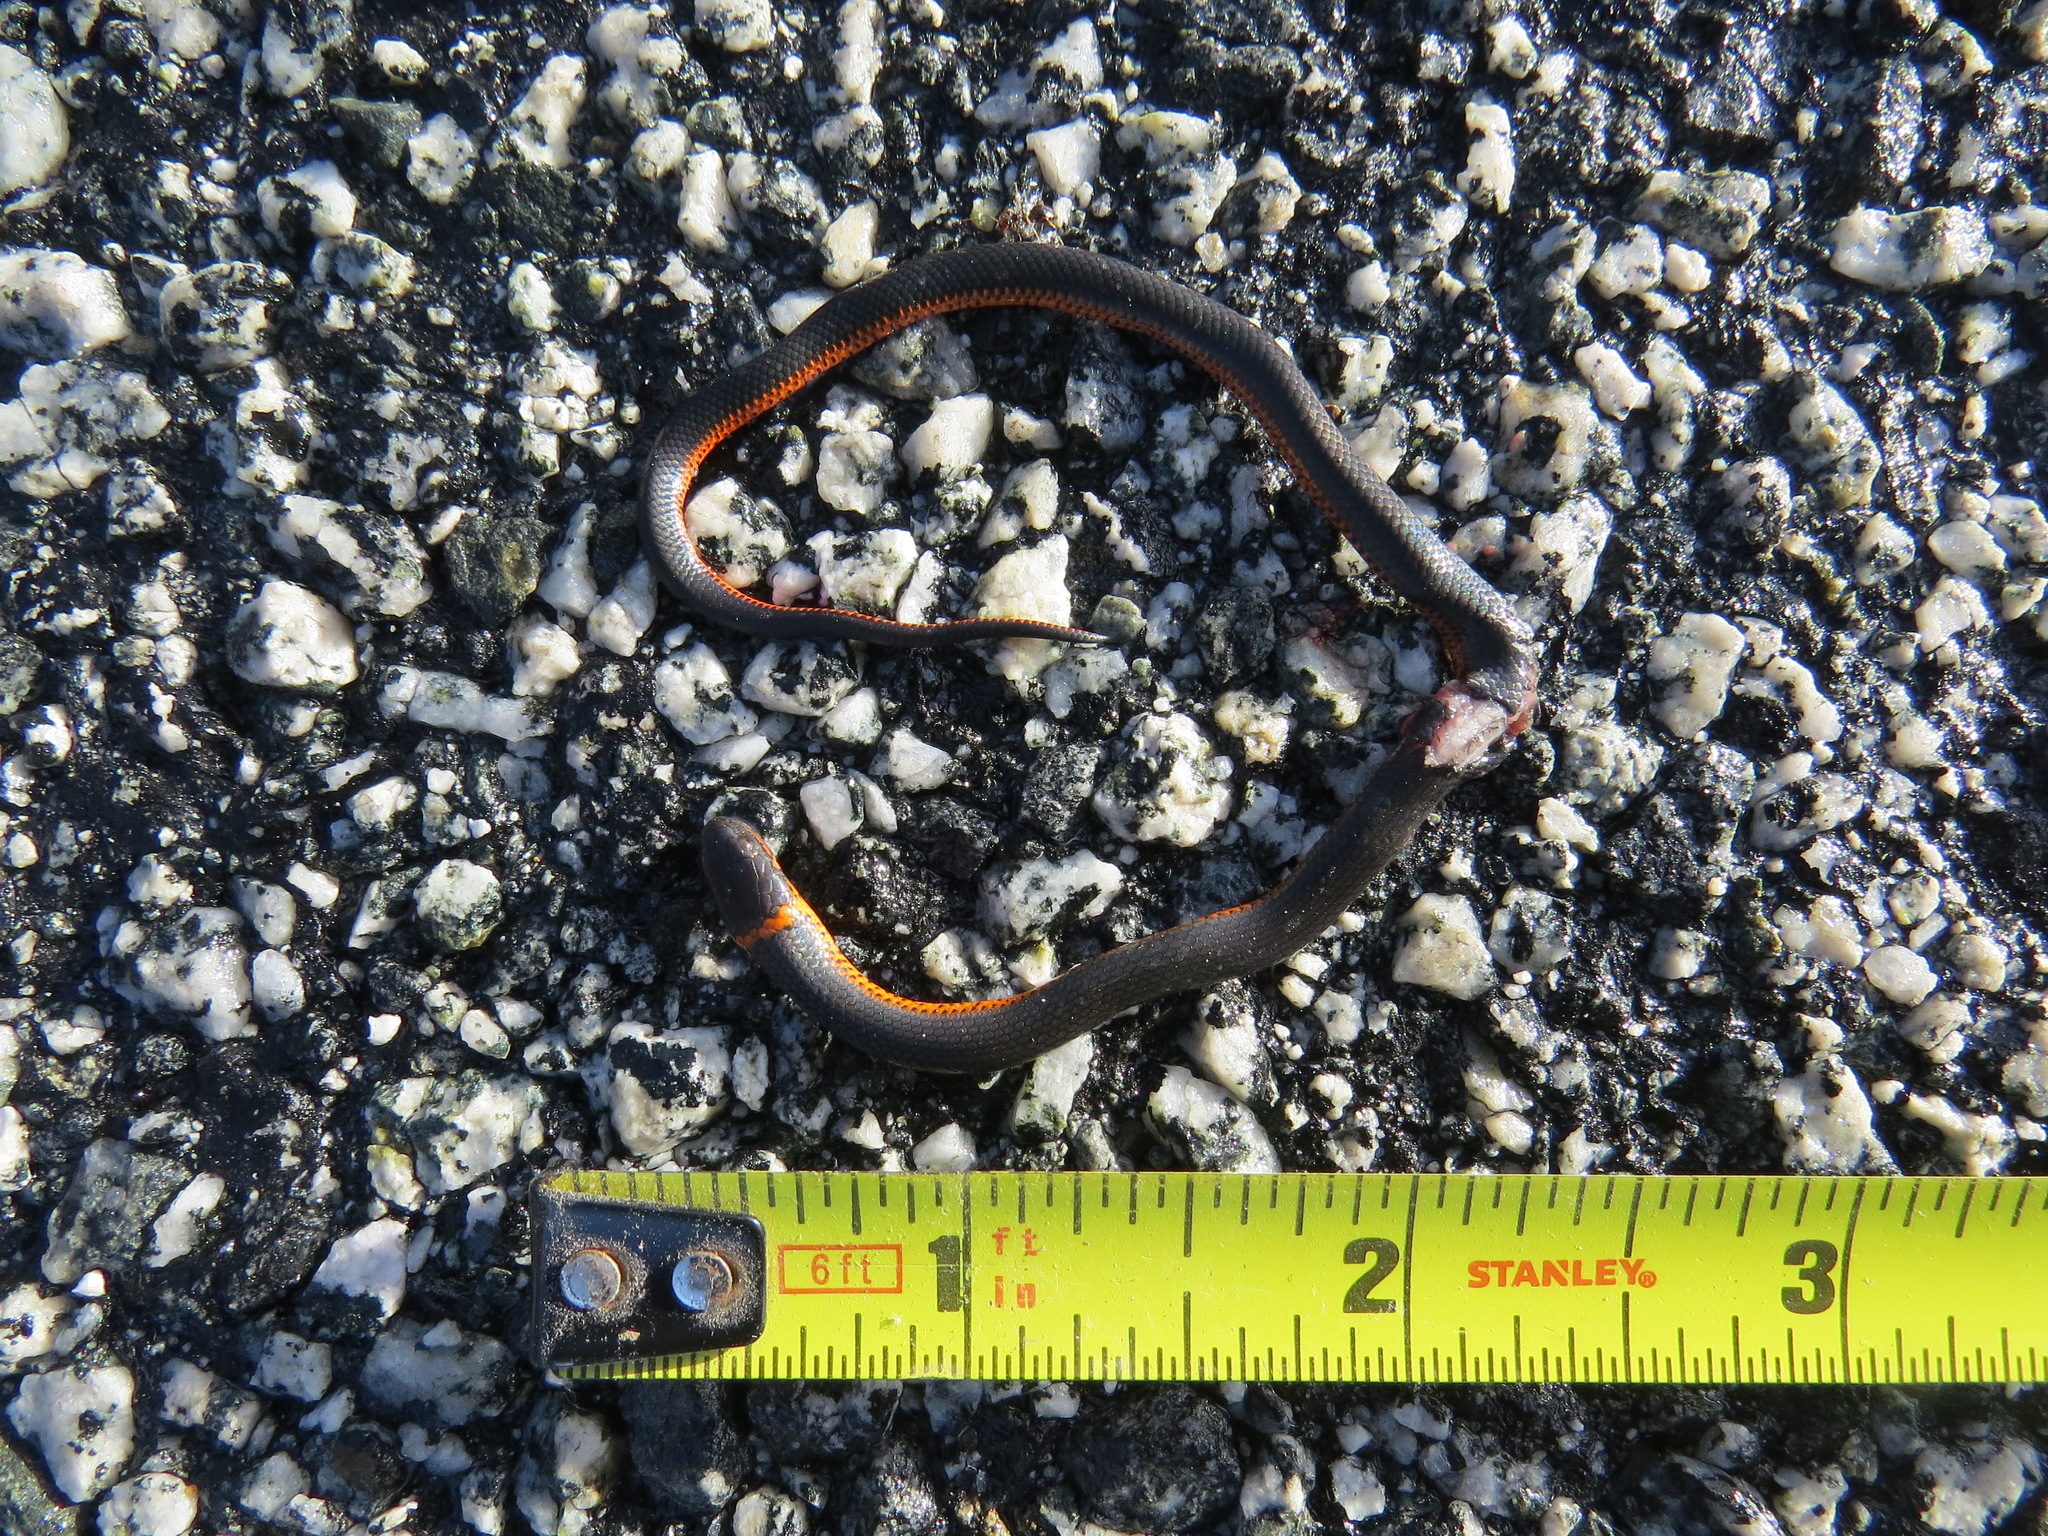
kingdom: Animalia
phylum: Chordata
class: Squamata
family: Colubridae
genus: Diadophis
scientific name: Diadophis punctatus
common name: Ringneck snake
